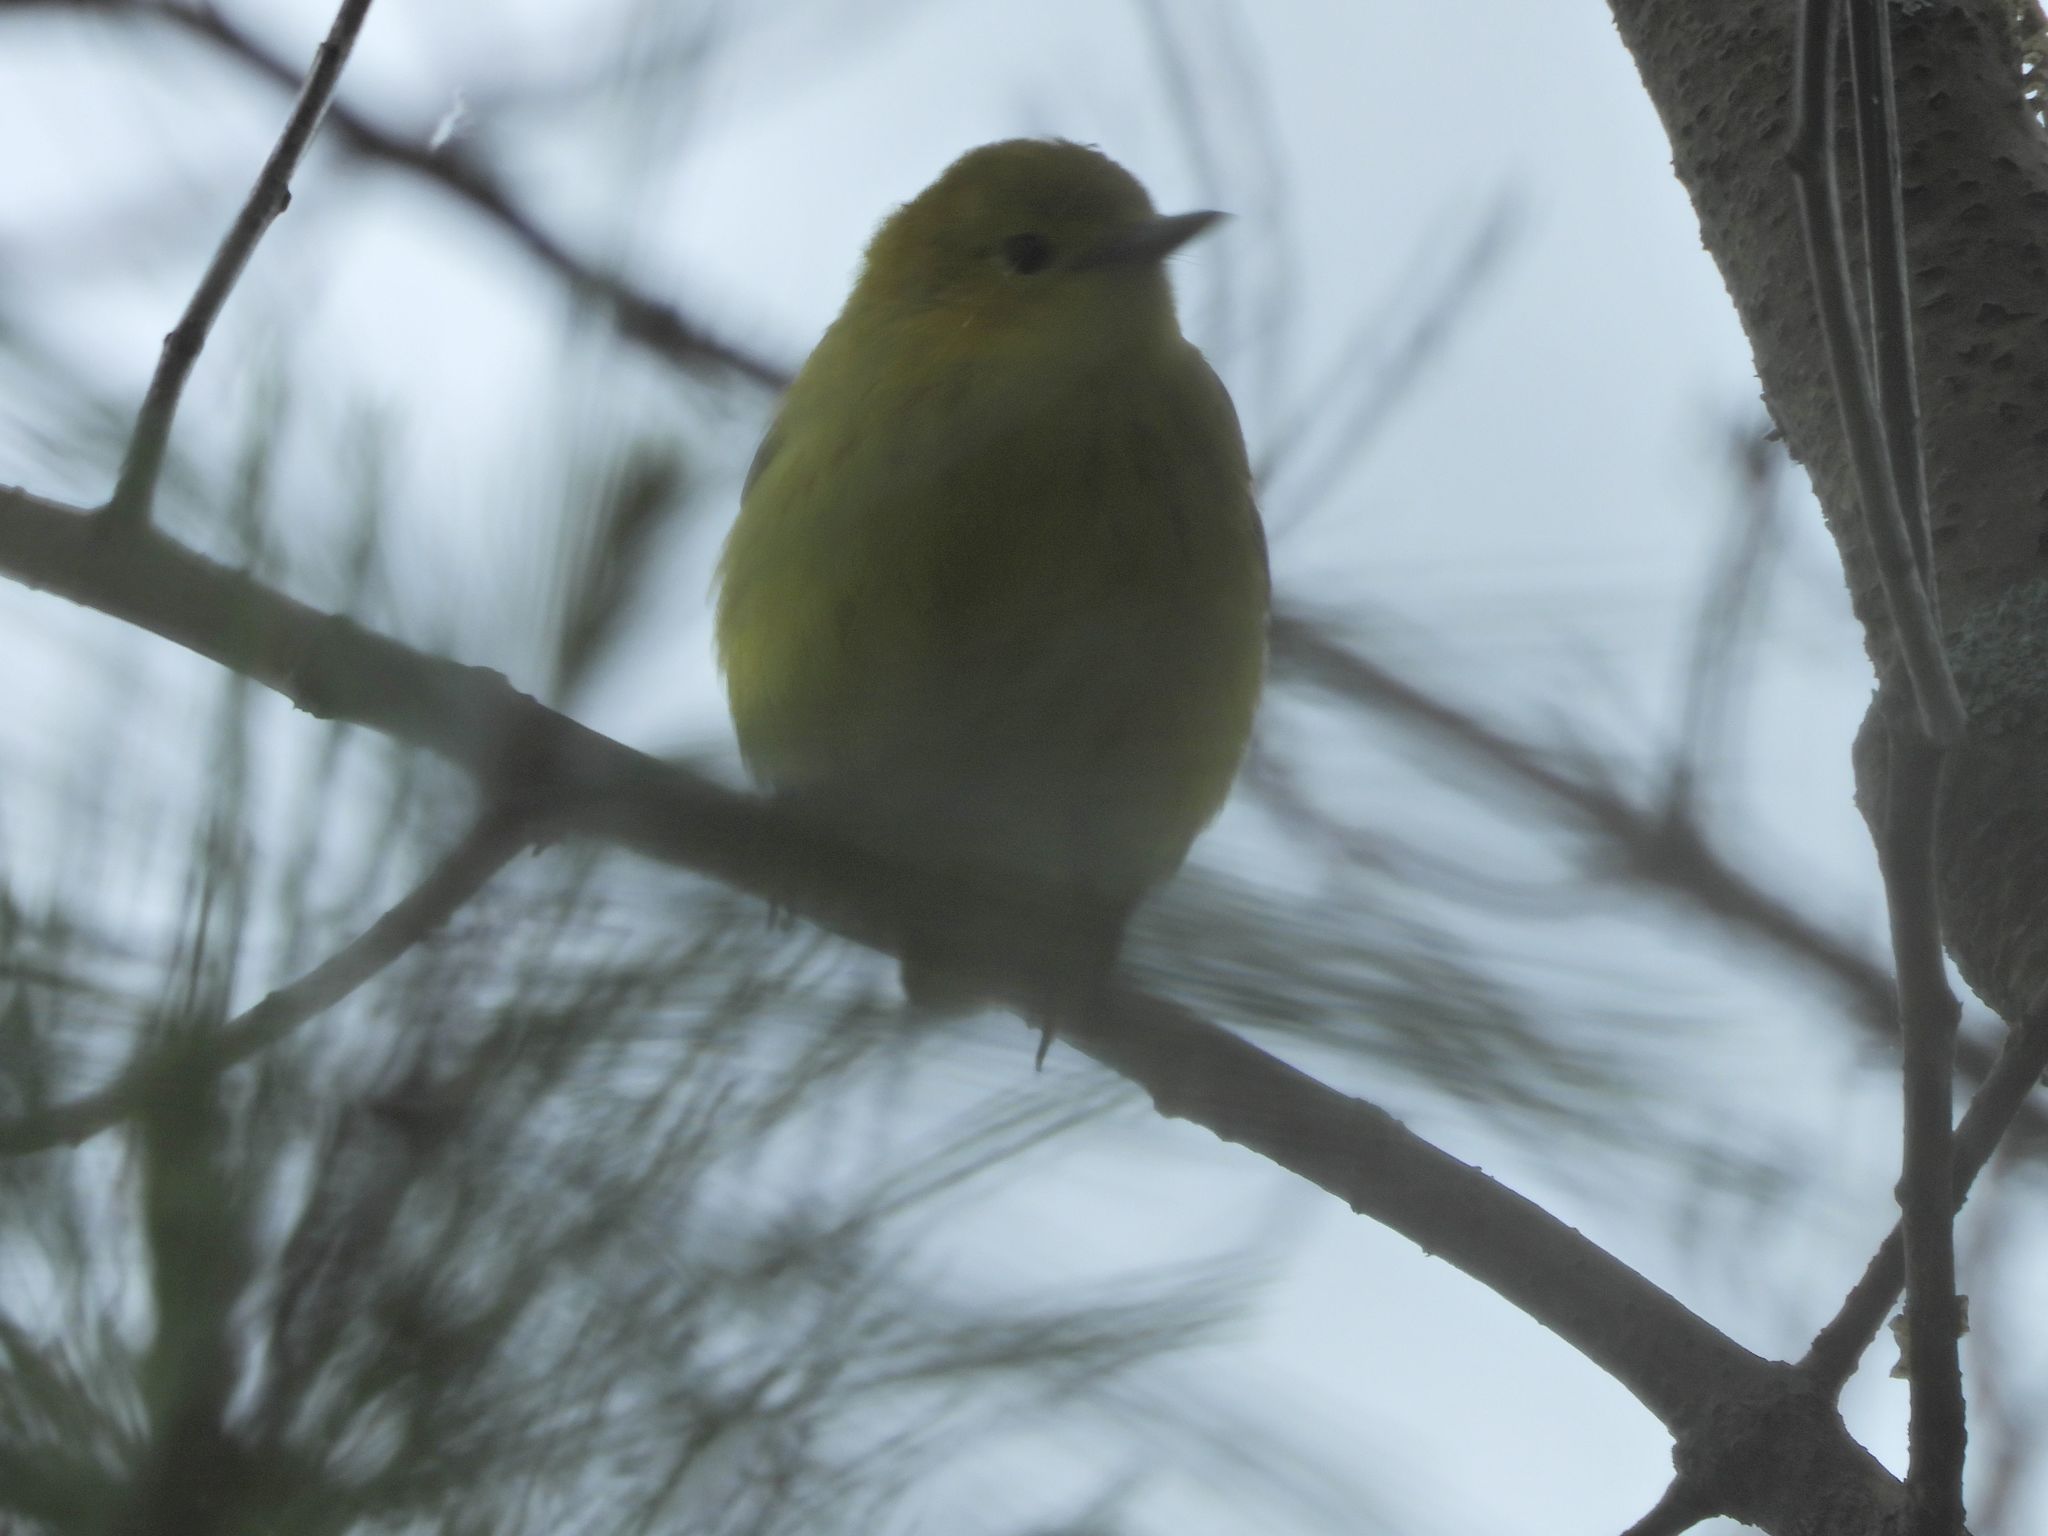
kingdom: Animalia
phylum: Chordata
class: Aves
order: Passeriformes
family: Parulidae
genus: Setophaga
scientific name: Setophaga petechia
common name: Yellow warbler
